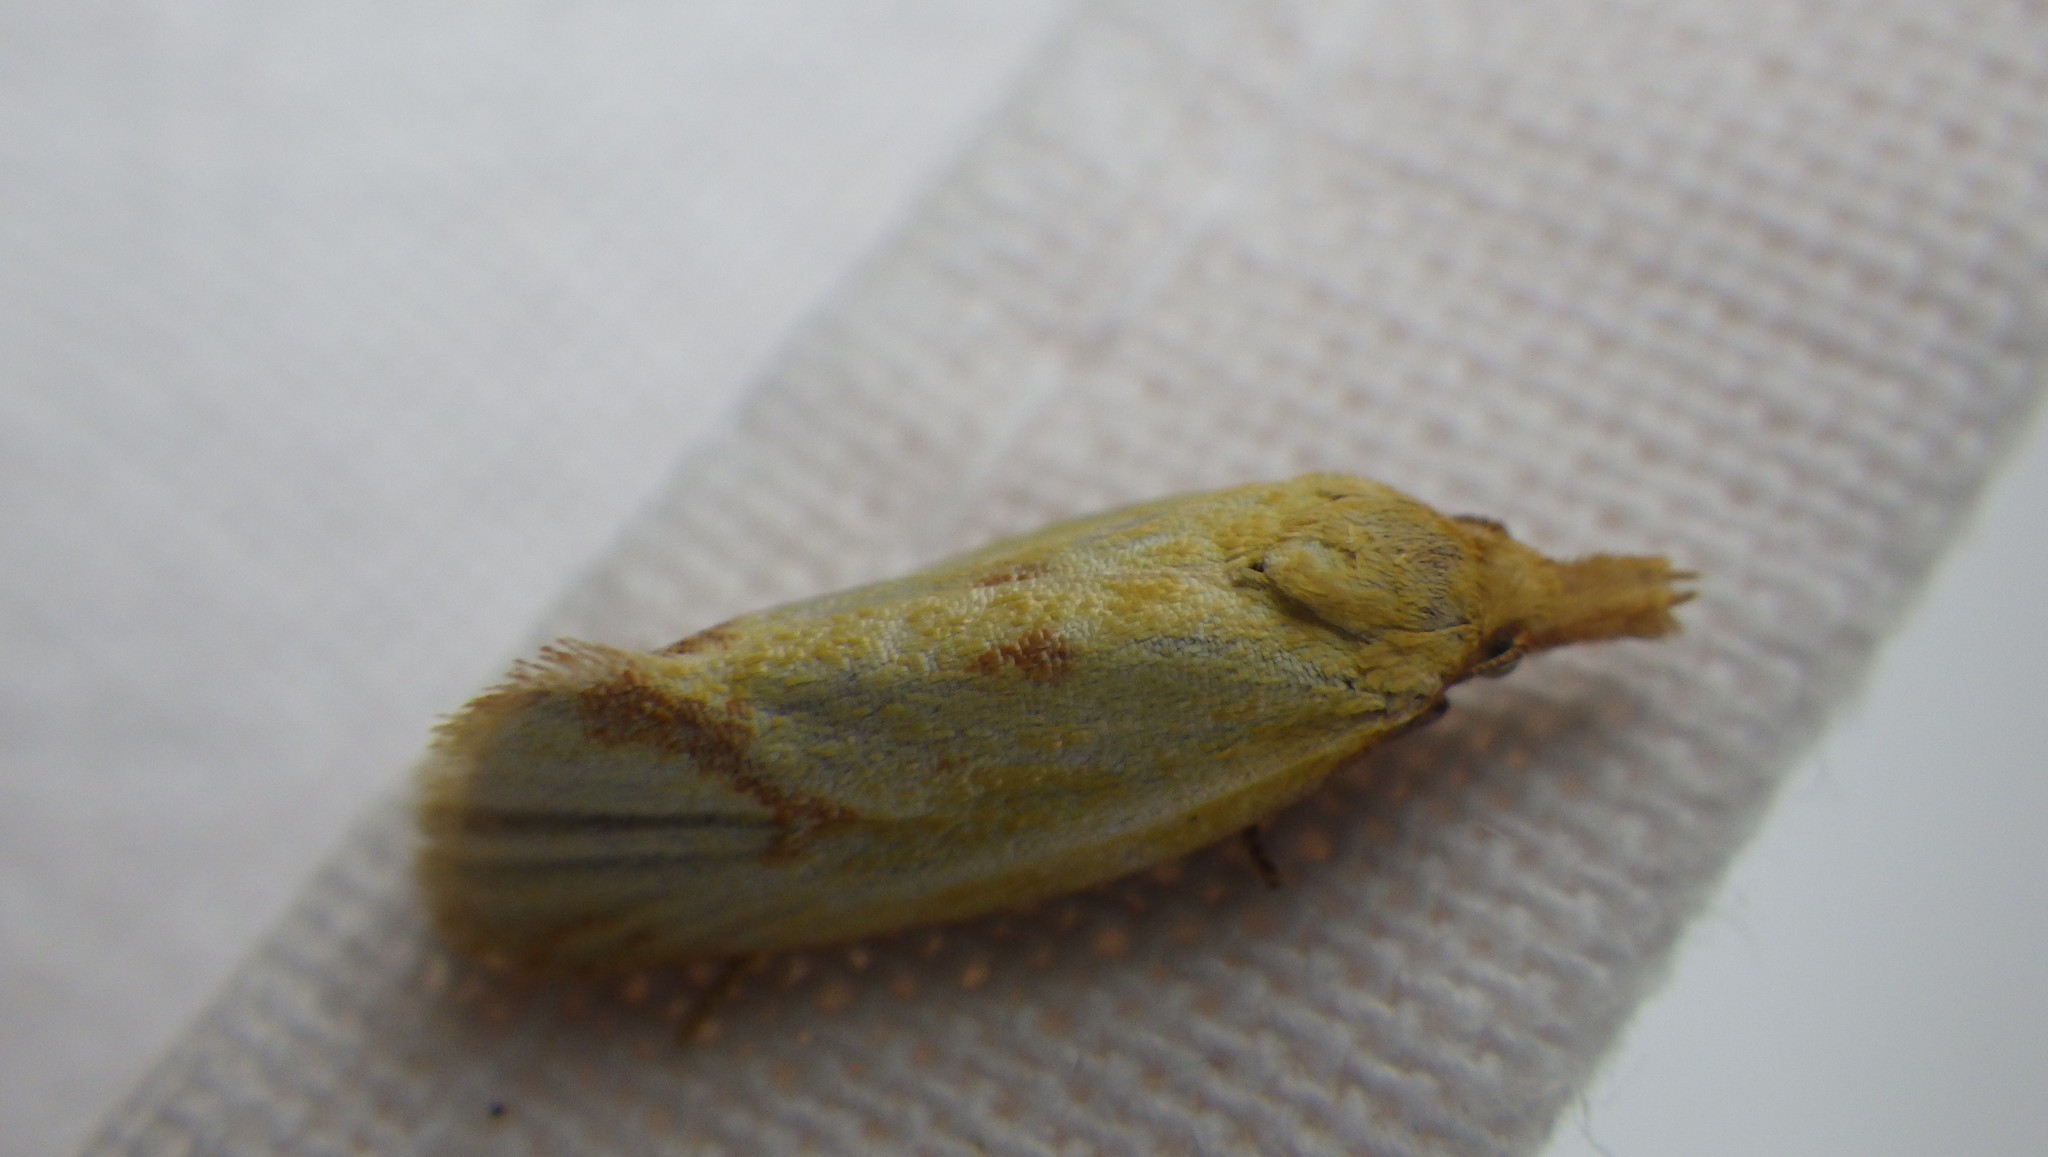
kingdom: Animalia
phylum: Arthropoda
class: Insecta
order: Lepidoptera
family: Tortricidae
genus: Agapeta
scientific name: Agapeta hamana
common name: Common yellow conch
